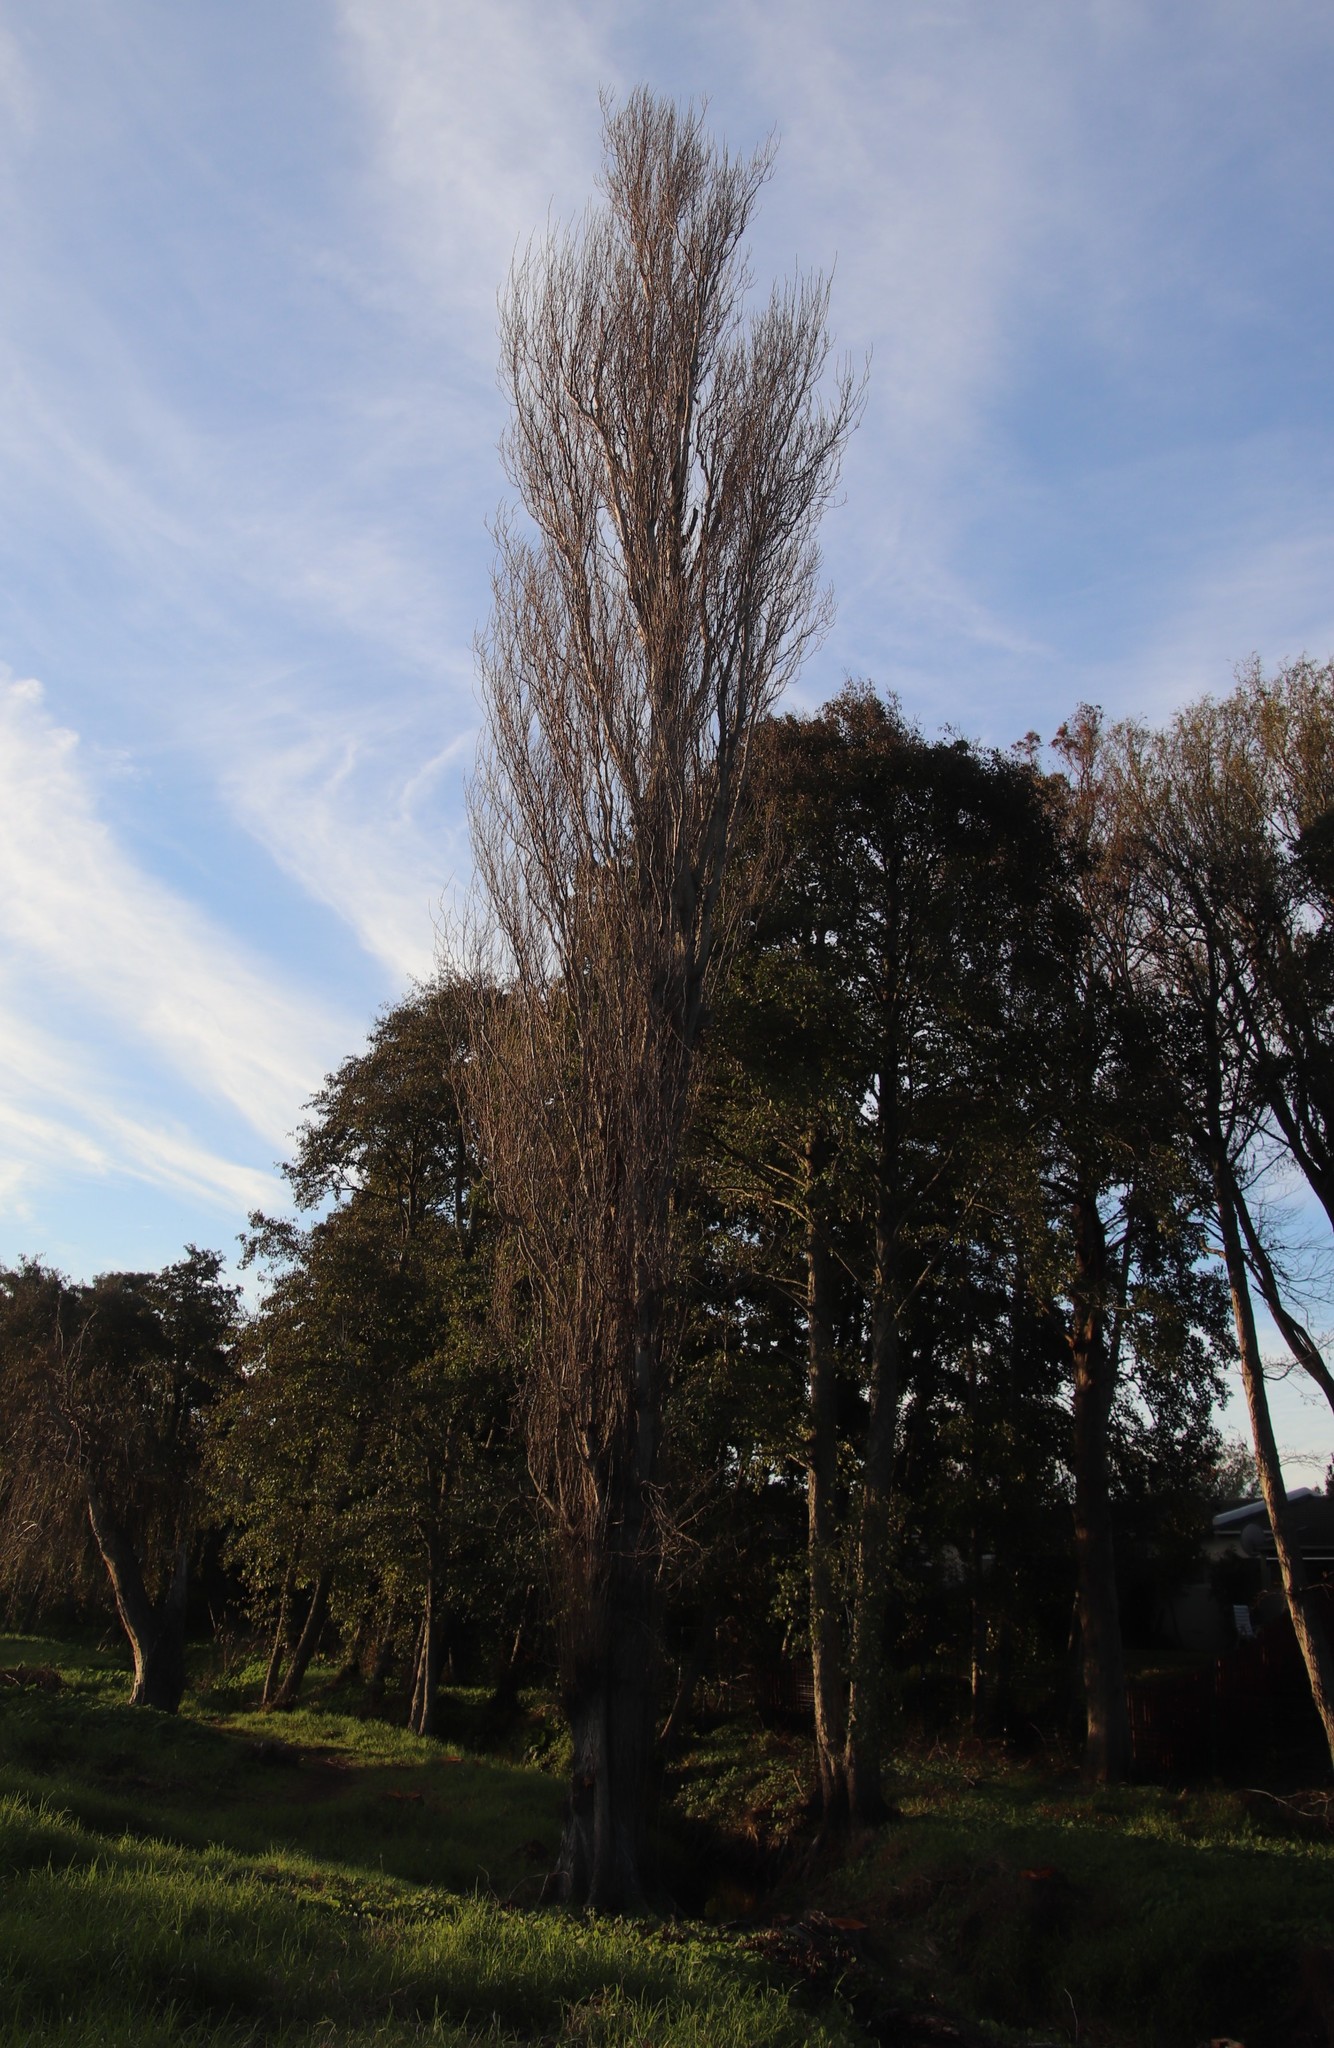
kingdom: Plantae
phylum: Tracheophyta
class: Magnoliopsida
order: Malpighiales
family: Salicaceae
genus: Populus
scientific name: Populus nigra
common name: Black poplar
